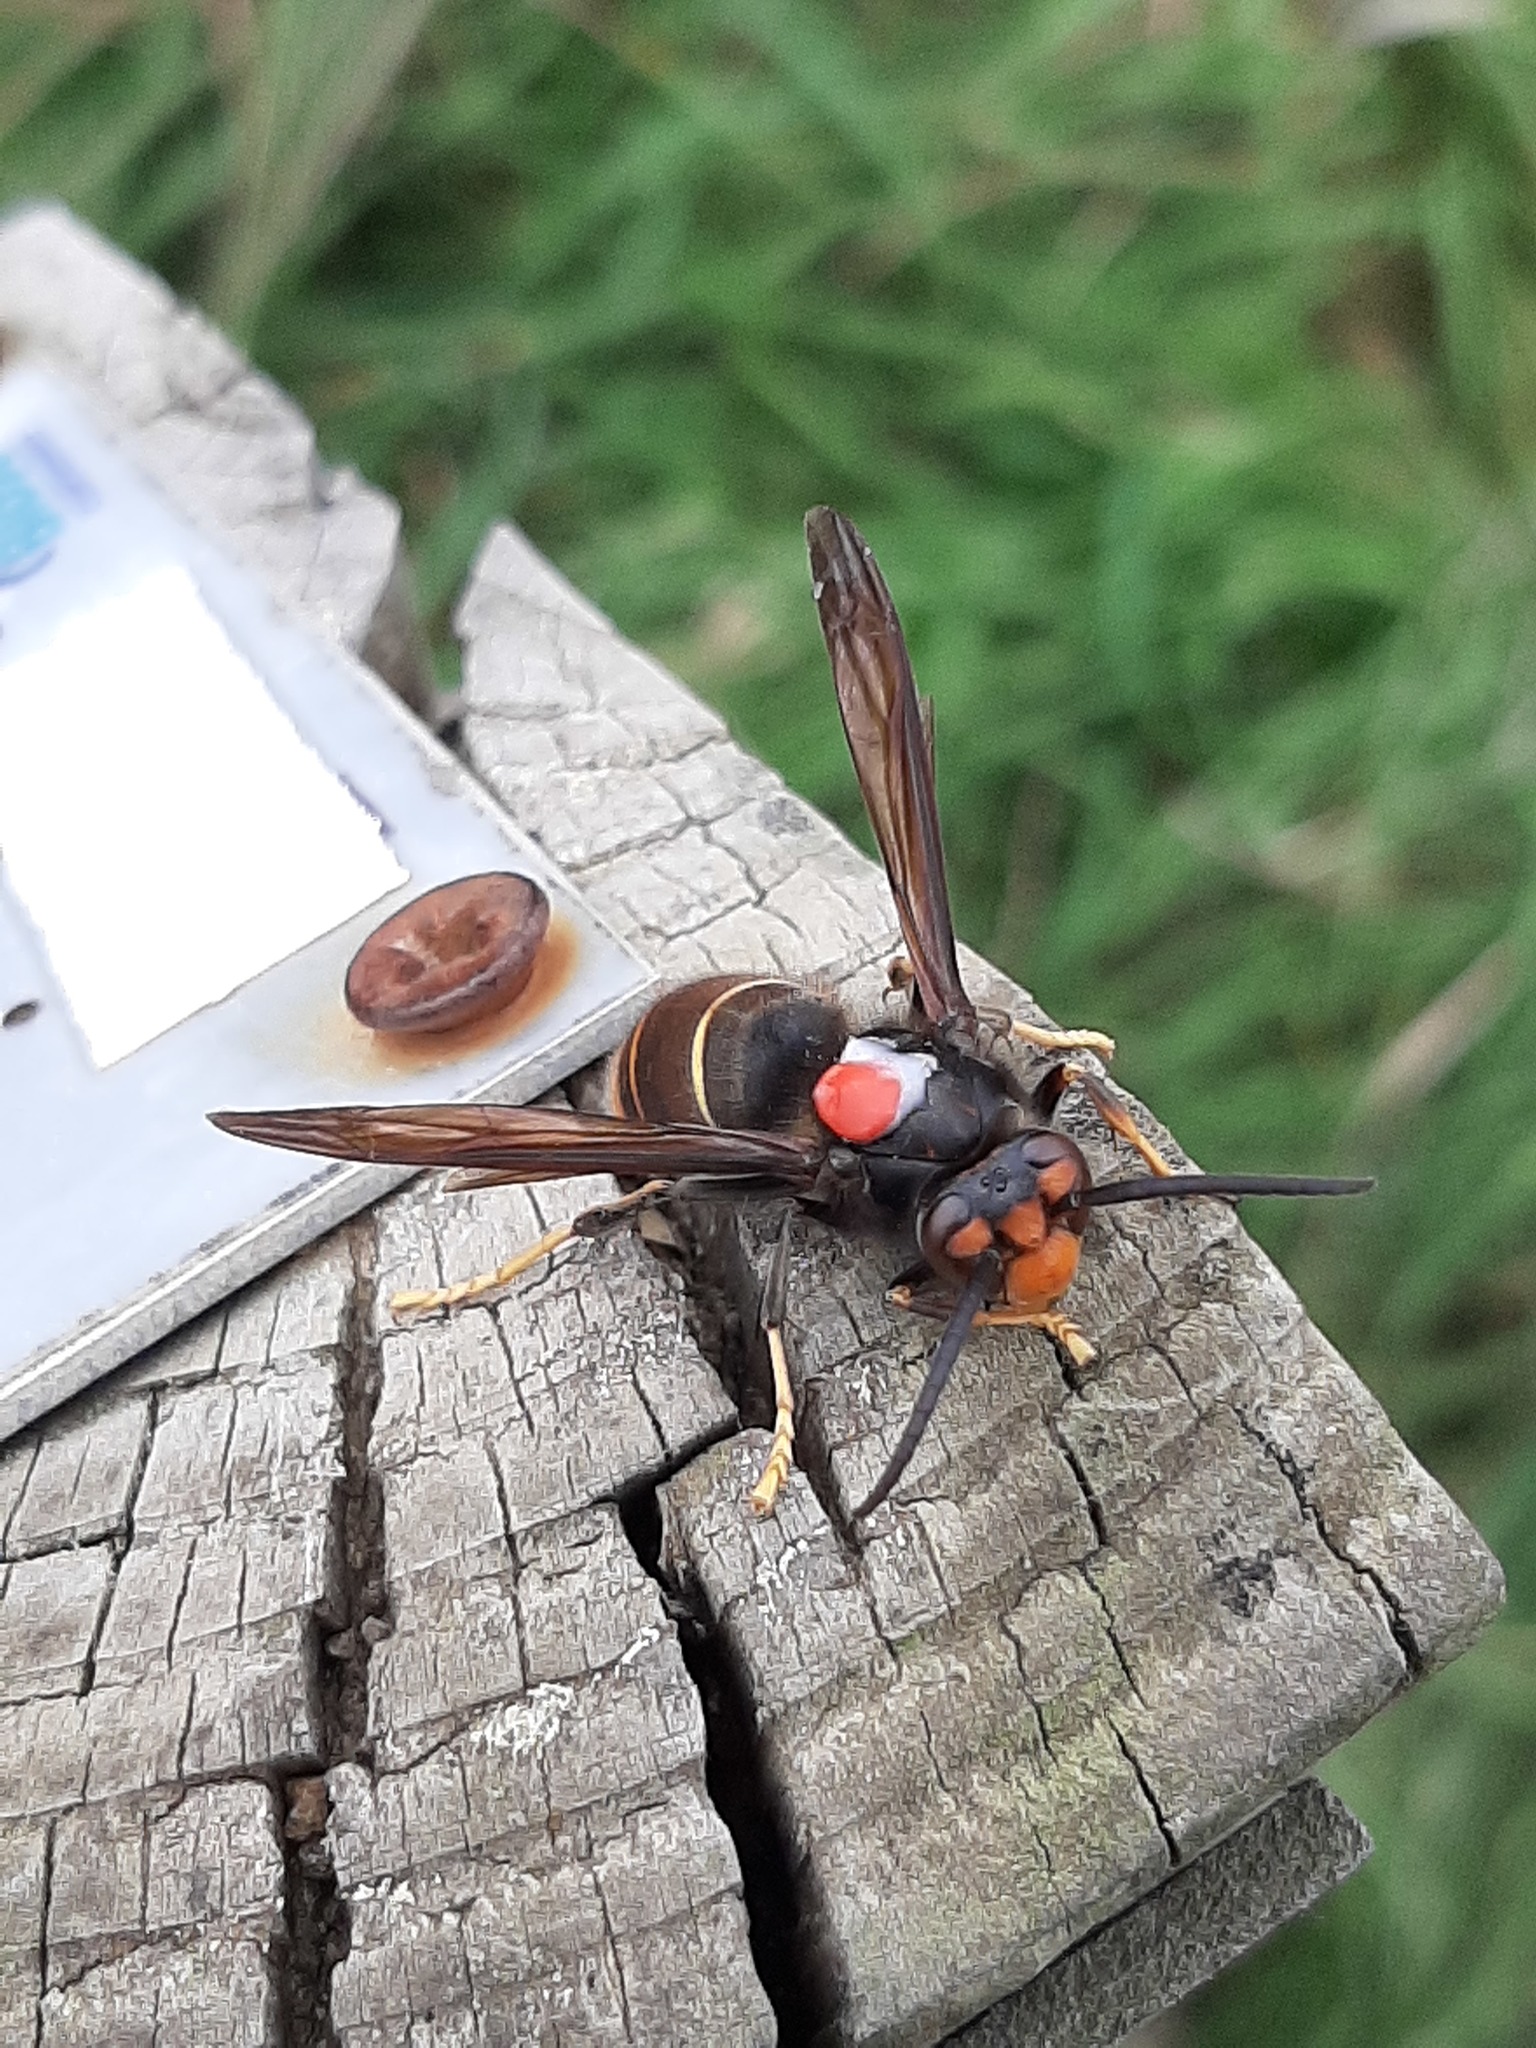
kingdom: Animalia
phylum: Arthropoda
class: Insecta
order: Hymenoptera
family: Vespidae
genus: Vespa
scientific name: Vespa velutina
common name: Asian hornet
